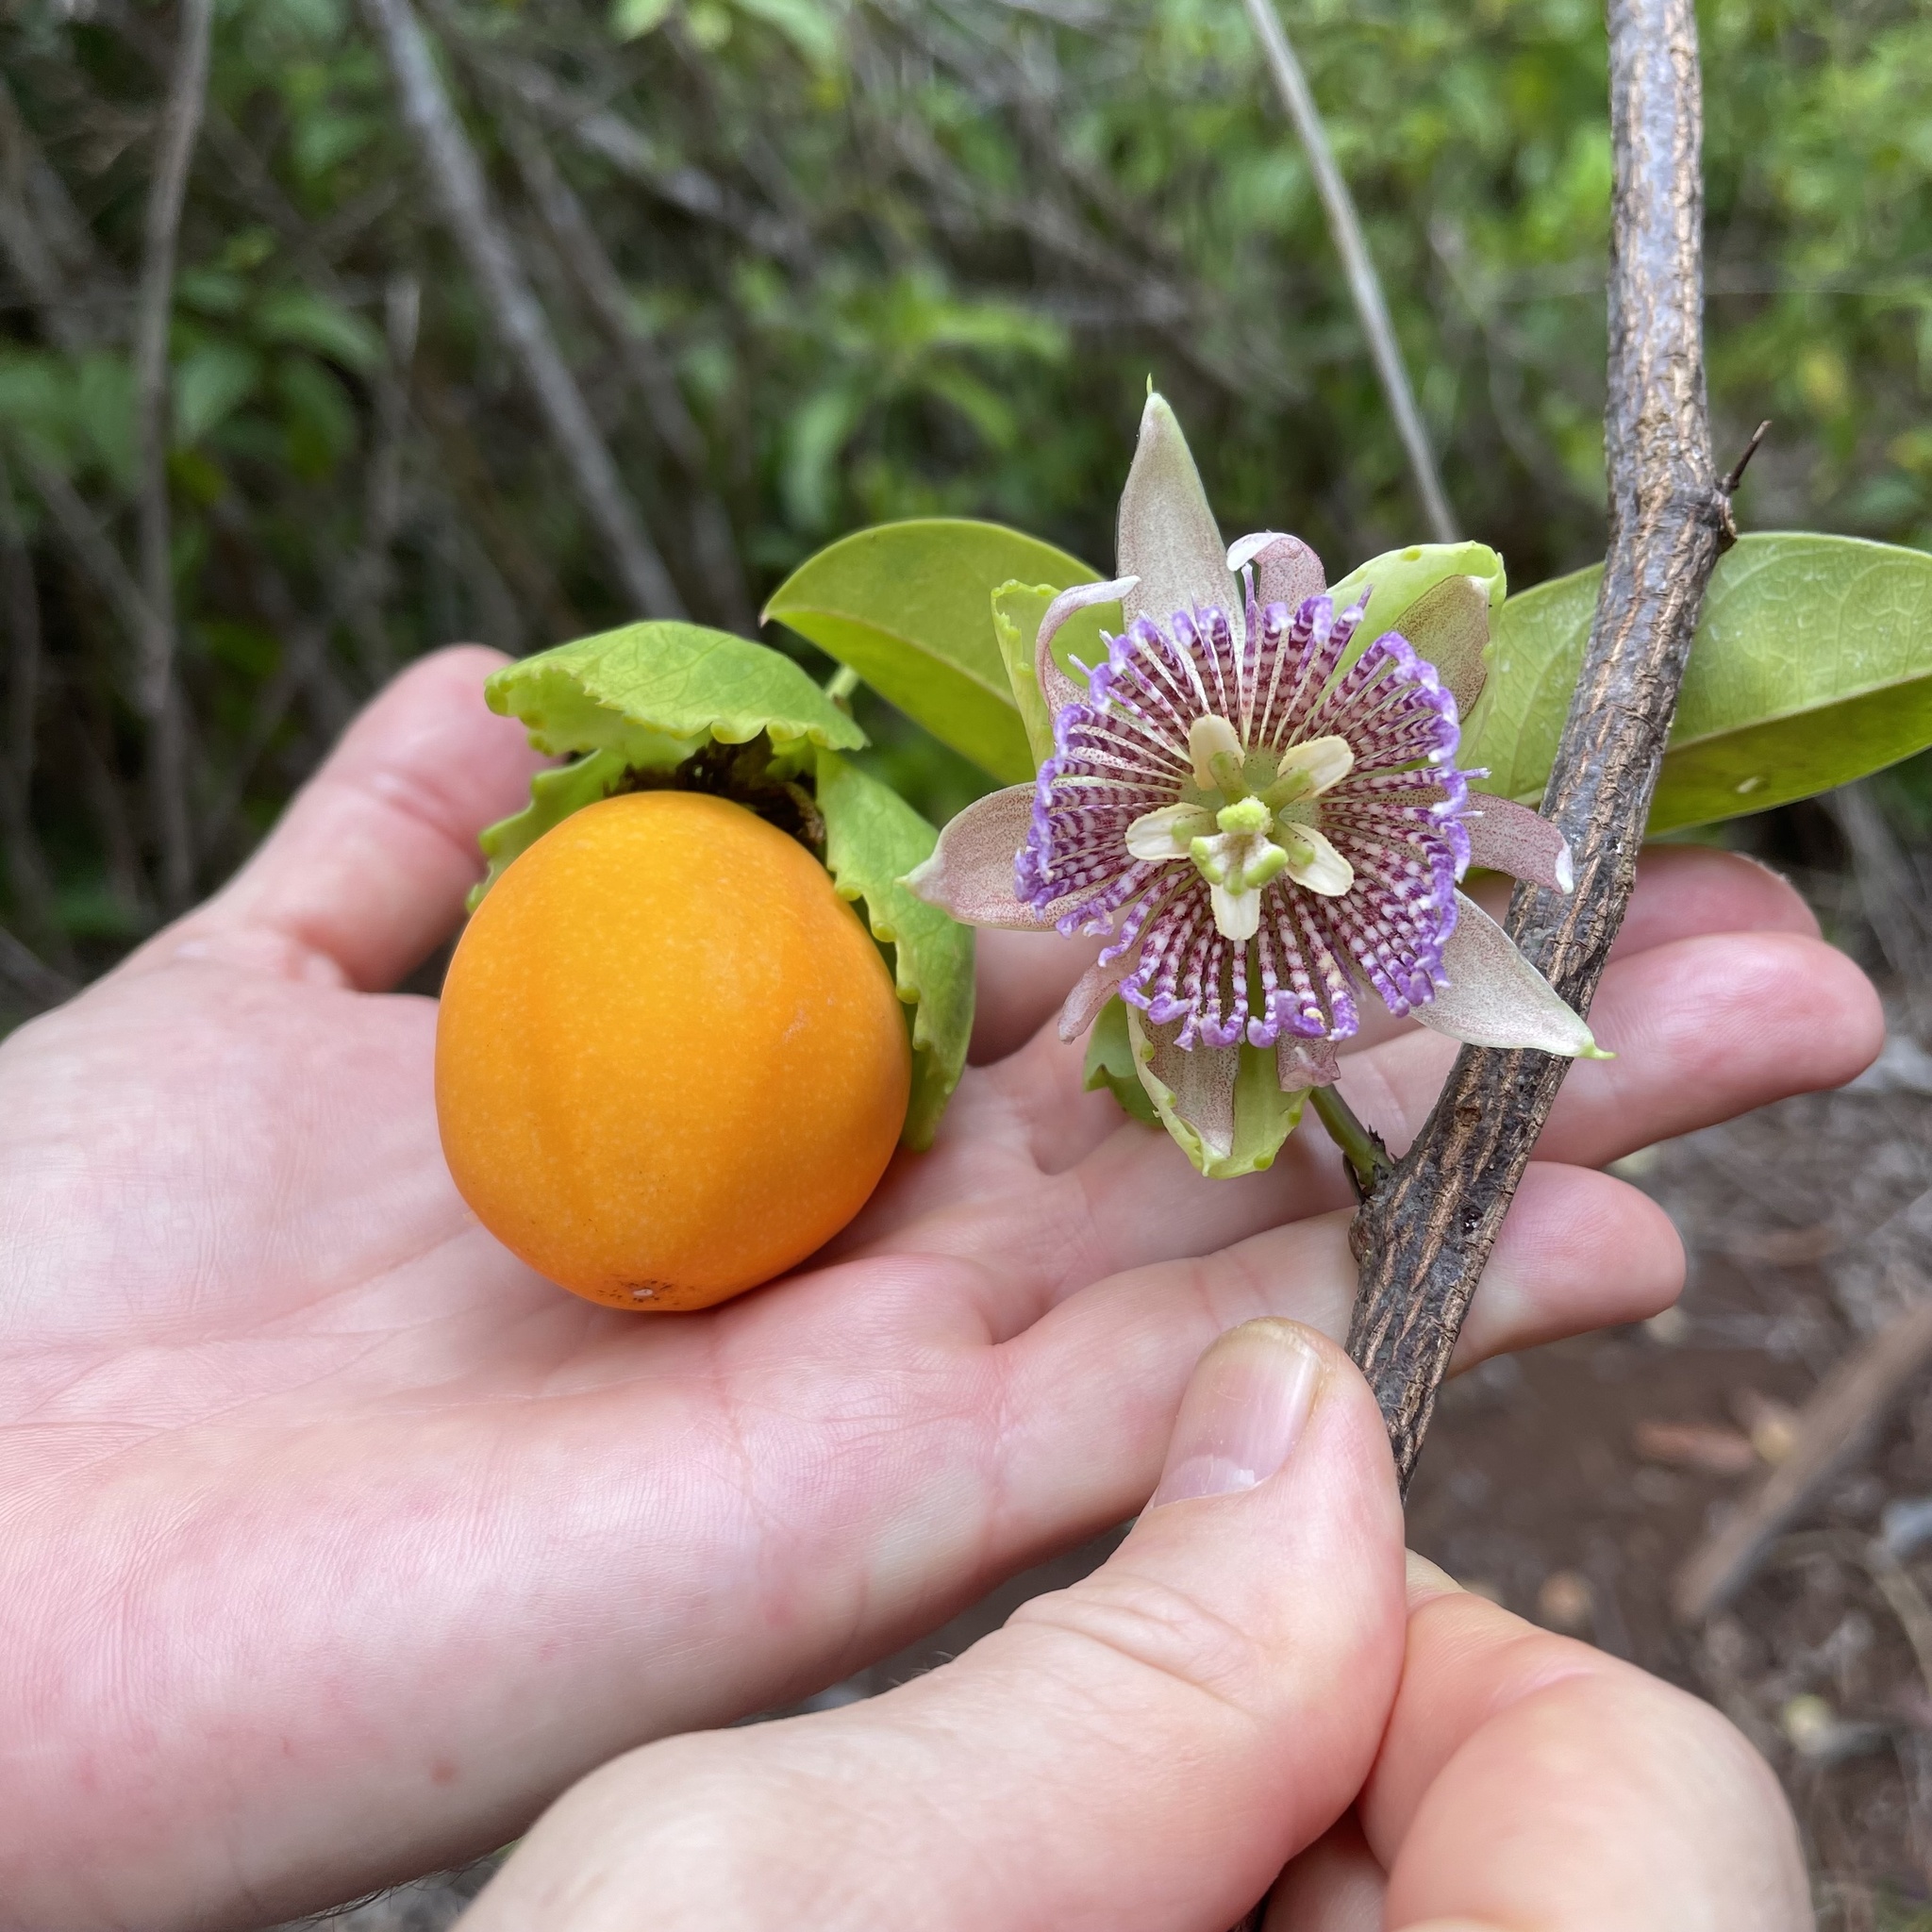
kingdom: Plantae
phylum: Tracheophyta
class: Magnoliopsida
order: Malpighiales
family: Passifloraceae
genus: Passiflora
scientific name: Passiflora laurifolia
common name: Bell apple
